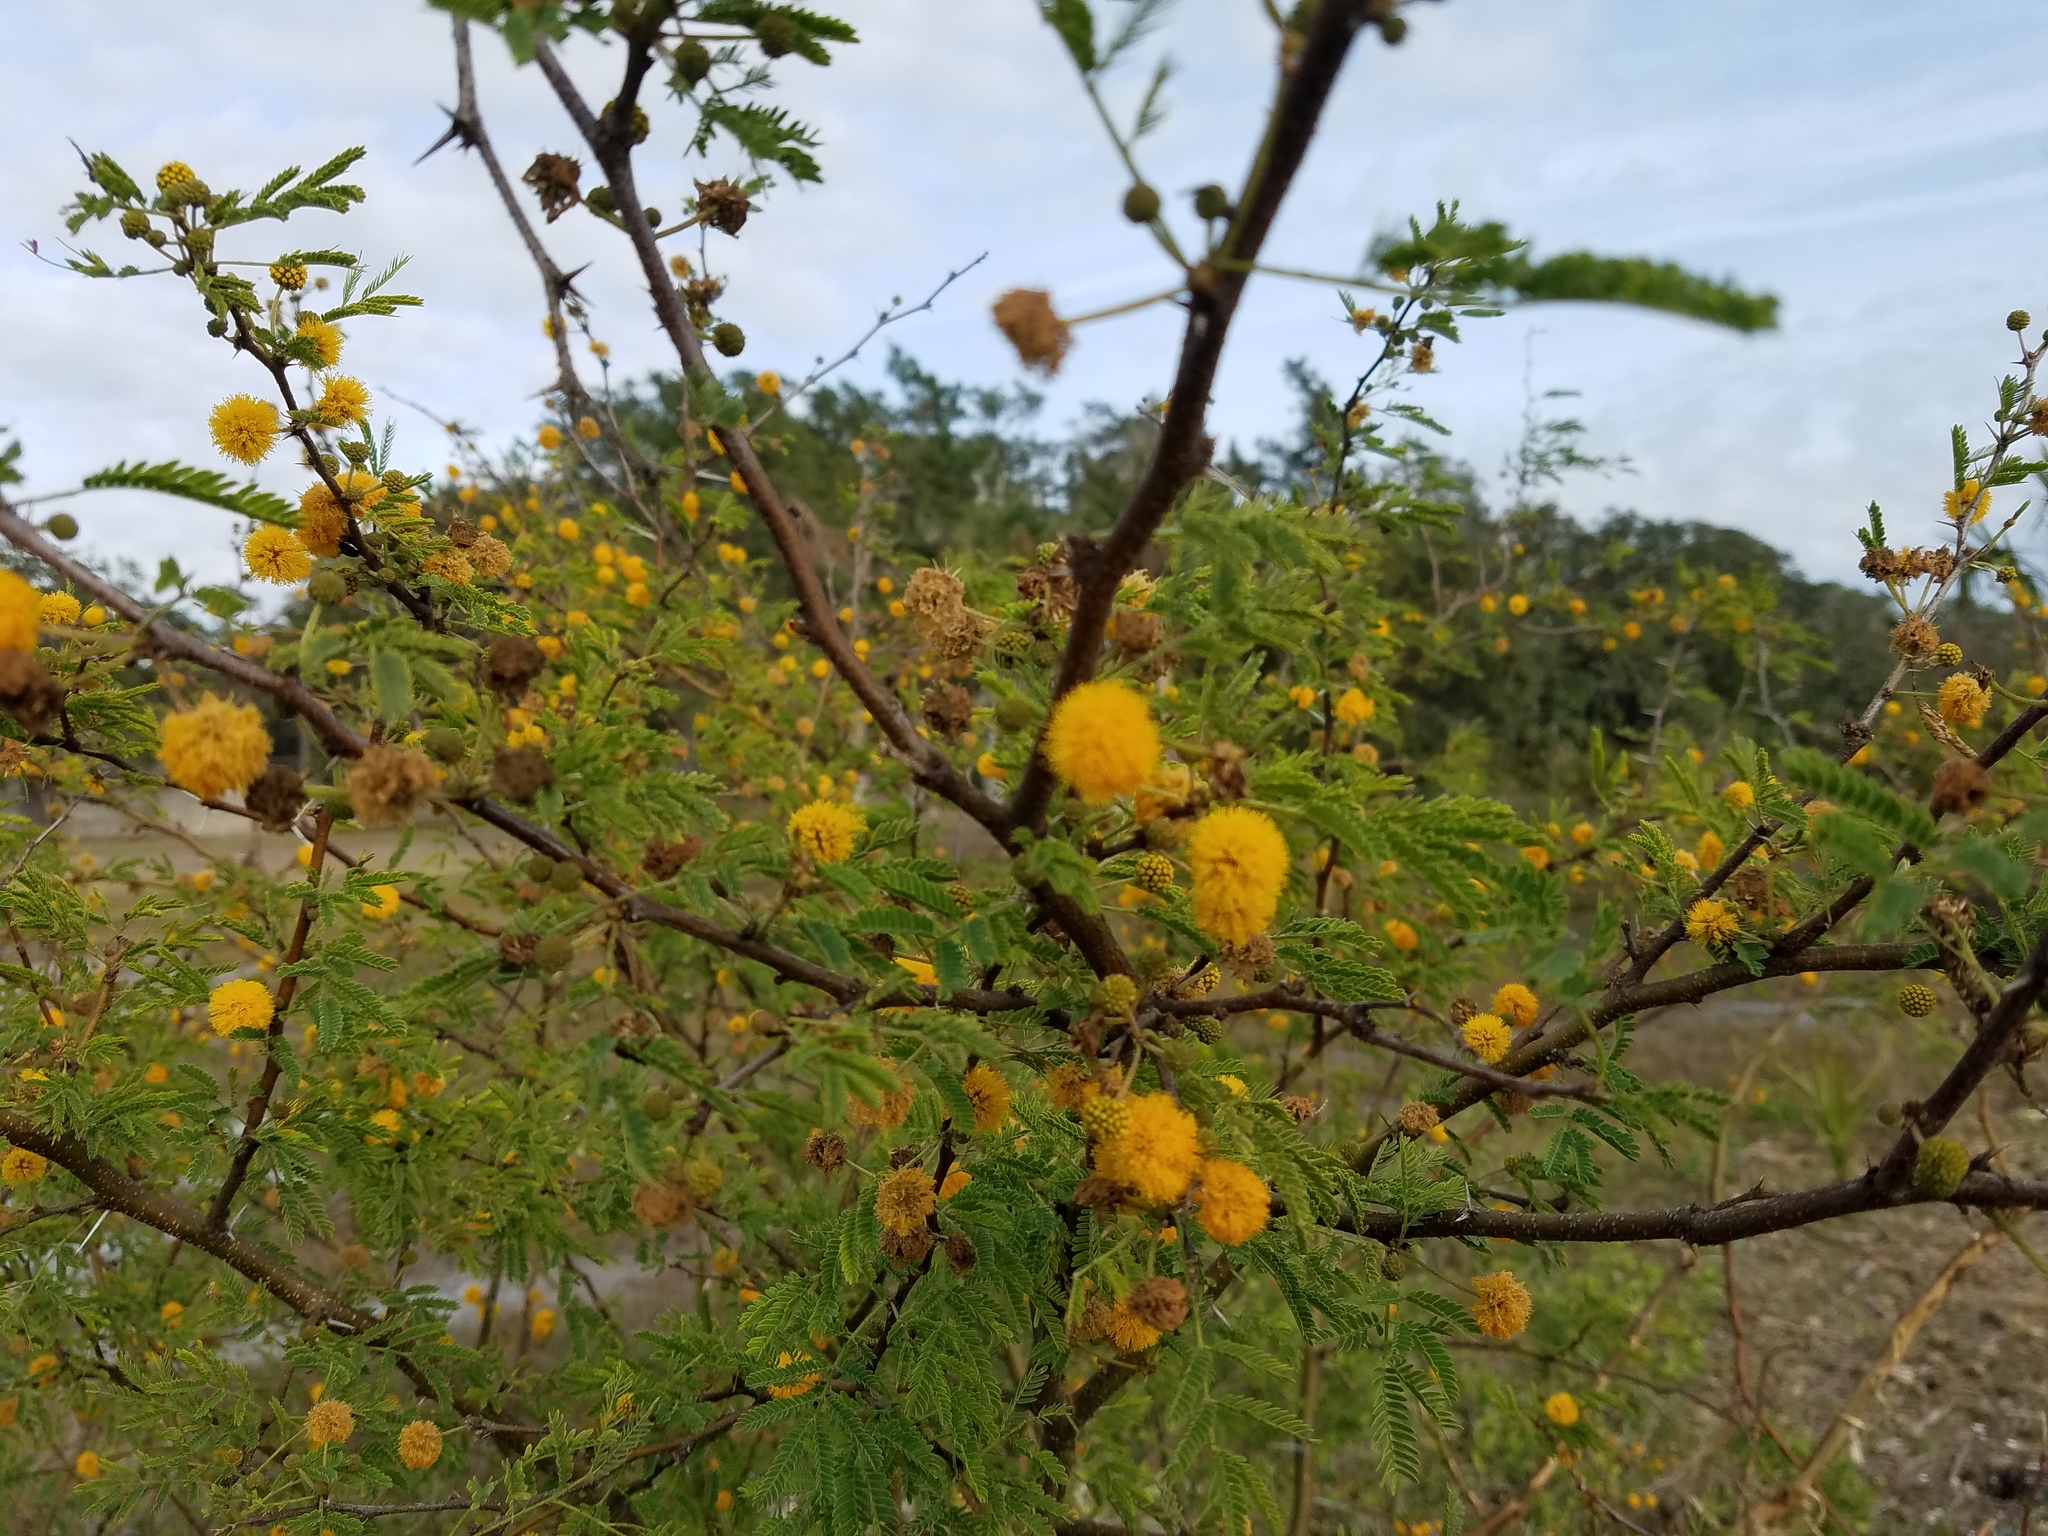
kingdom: Plantae
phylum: Tracheophyta
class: Magnoliopsida
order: Fabales
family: Fabaceae
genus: Vachellia
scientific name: Vachellia farnesiana
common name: Sweet acacia
